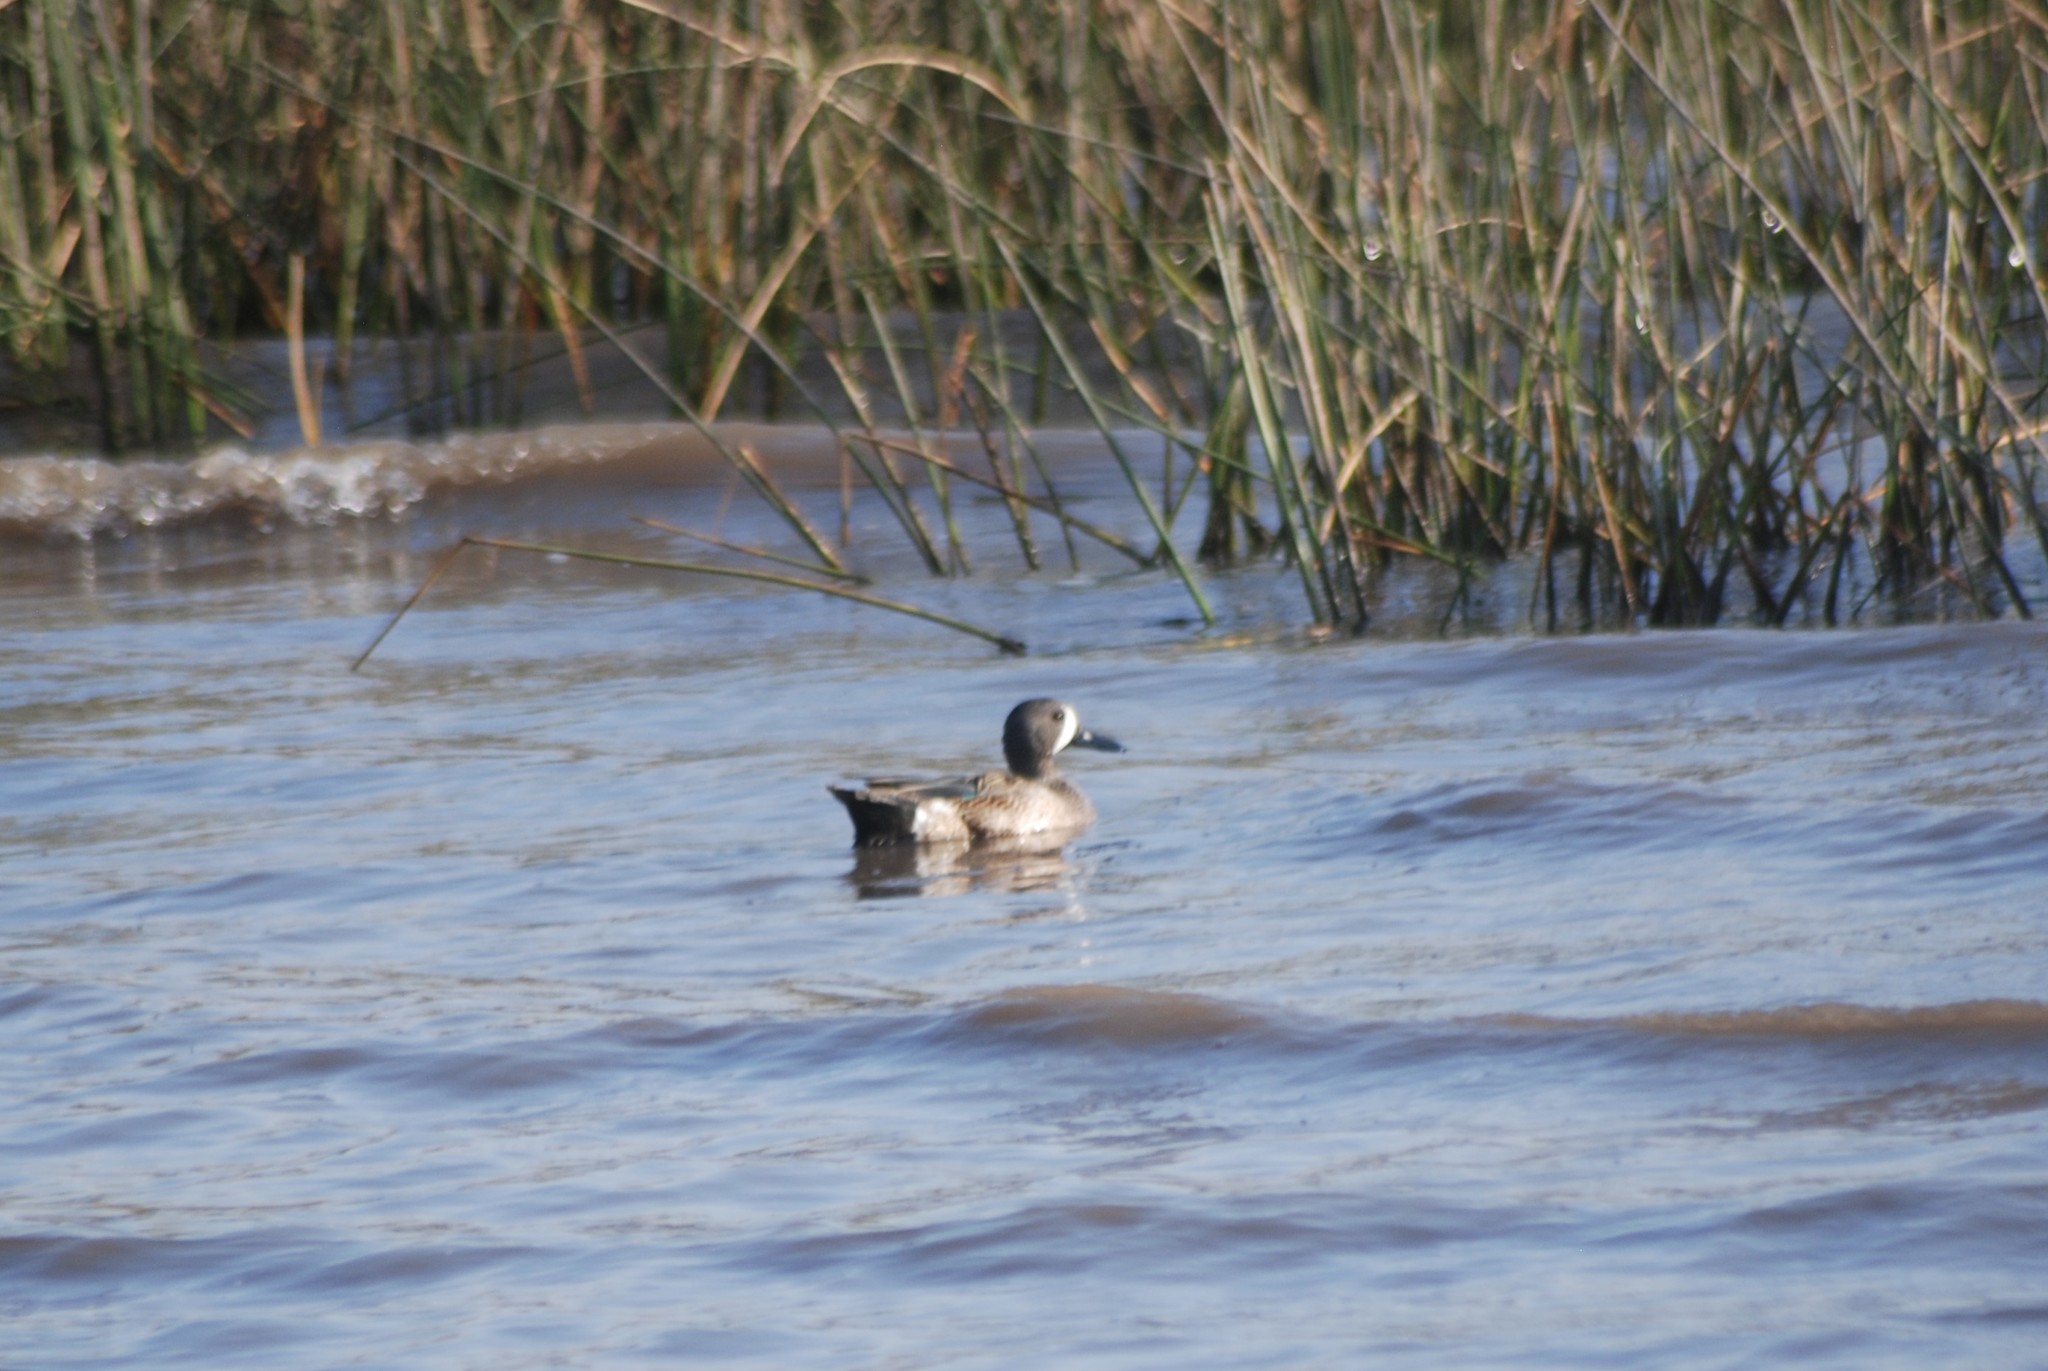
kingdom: Animalia
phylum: Chordata
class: Aves
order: Anseriformes
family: Anatidae
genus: Spatula
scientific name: Spatula discors
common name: Blue-winged teal
